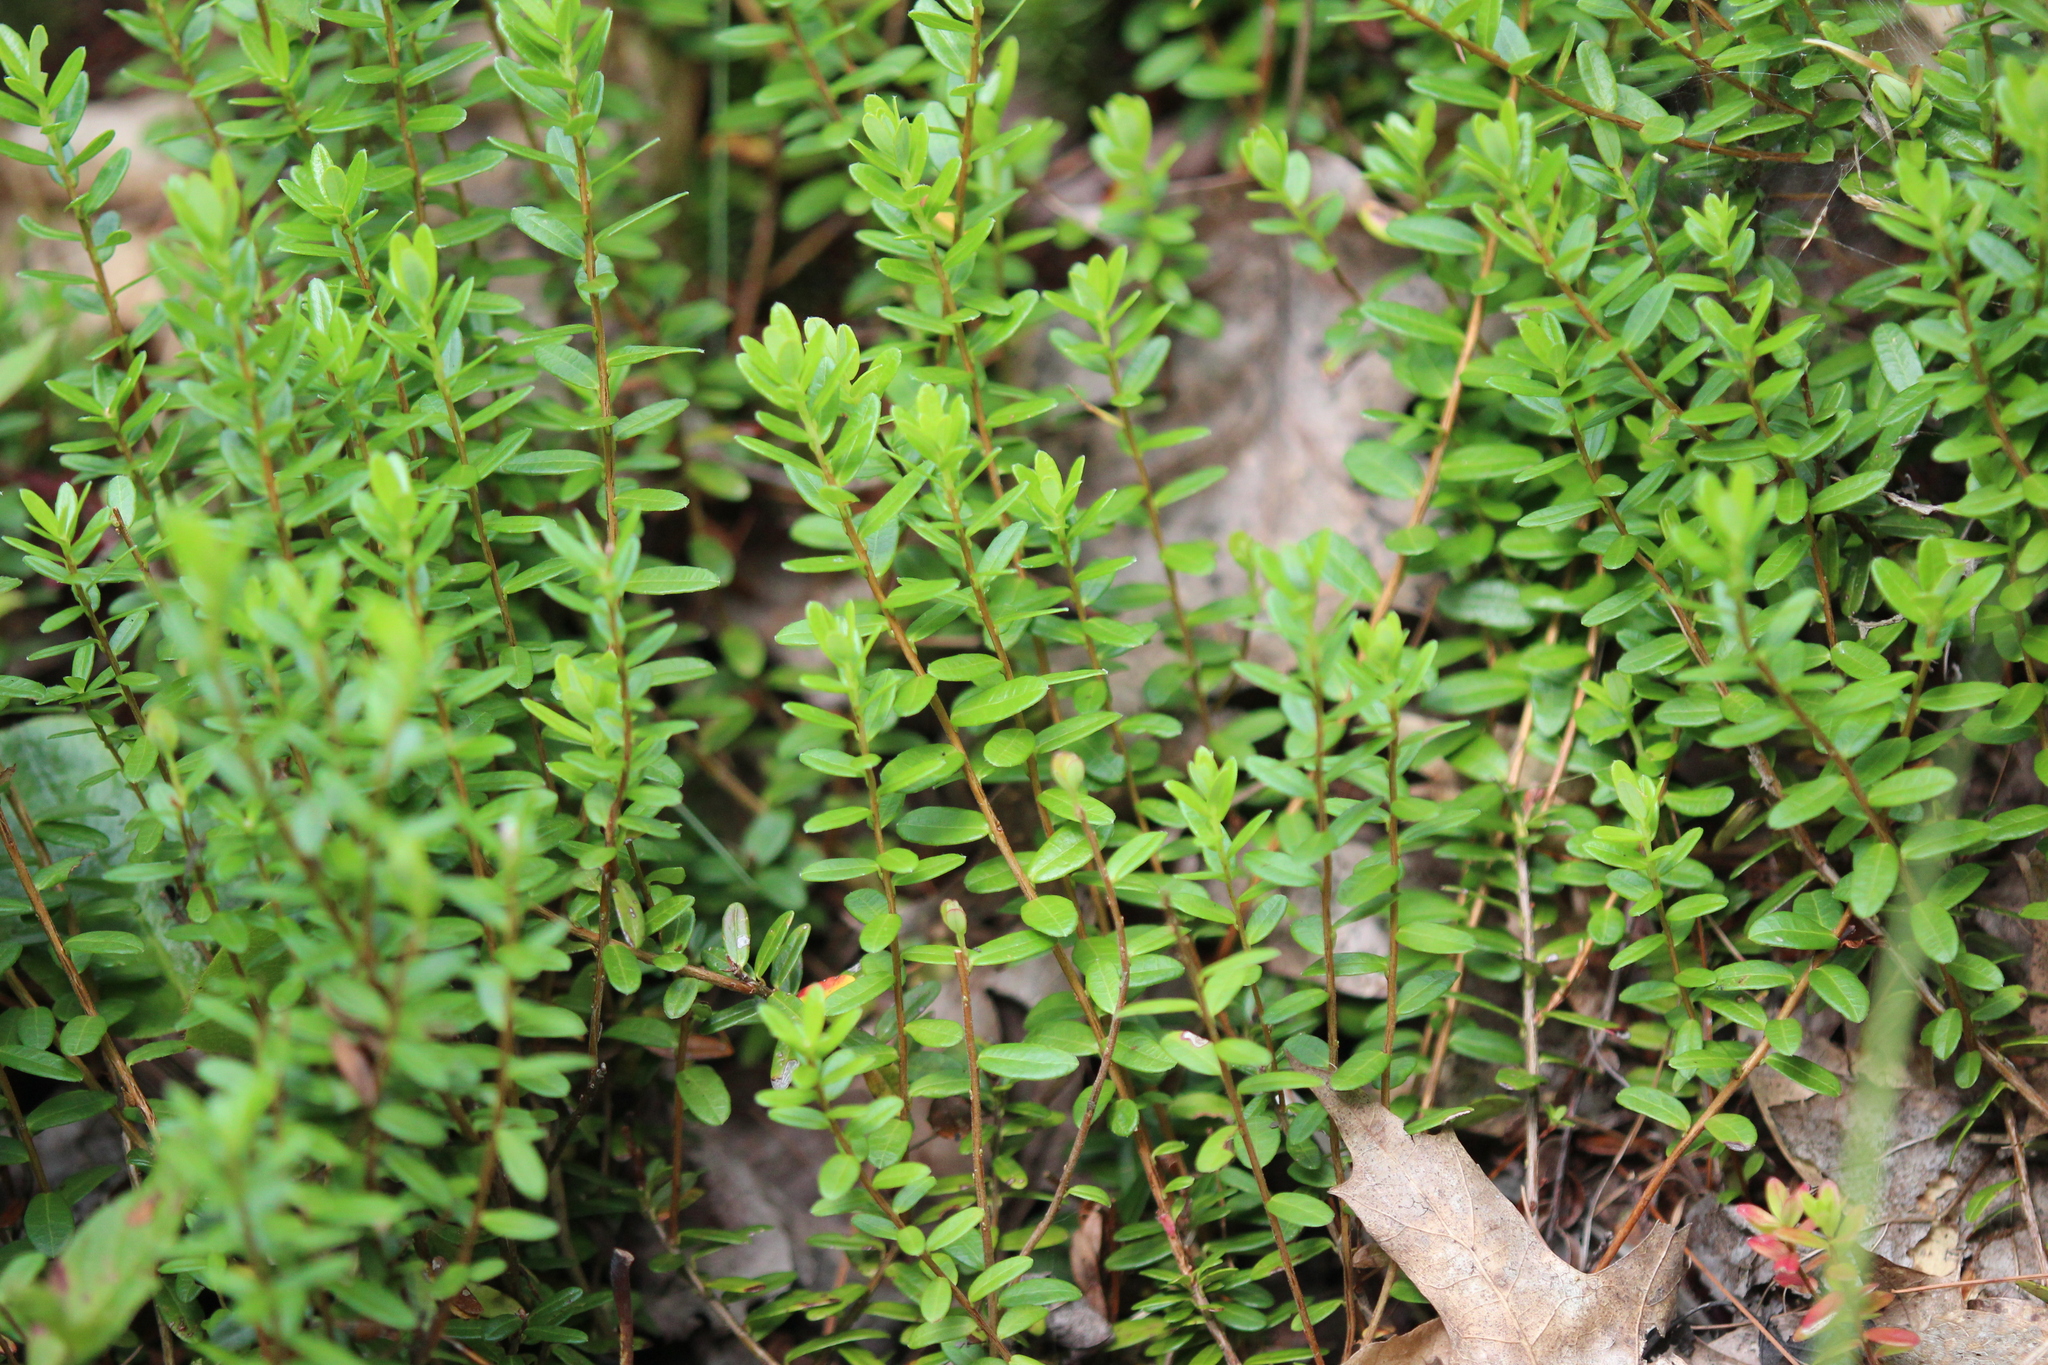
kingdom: Plantae
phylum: Tracheophyta
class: Magnoliopsida
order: Ericales
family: Ericaceae
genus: Vaccinium
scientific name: Vaccinium macrocarpon
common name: American cranberry
